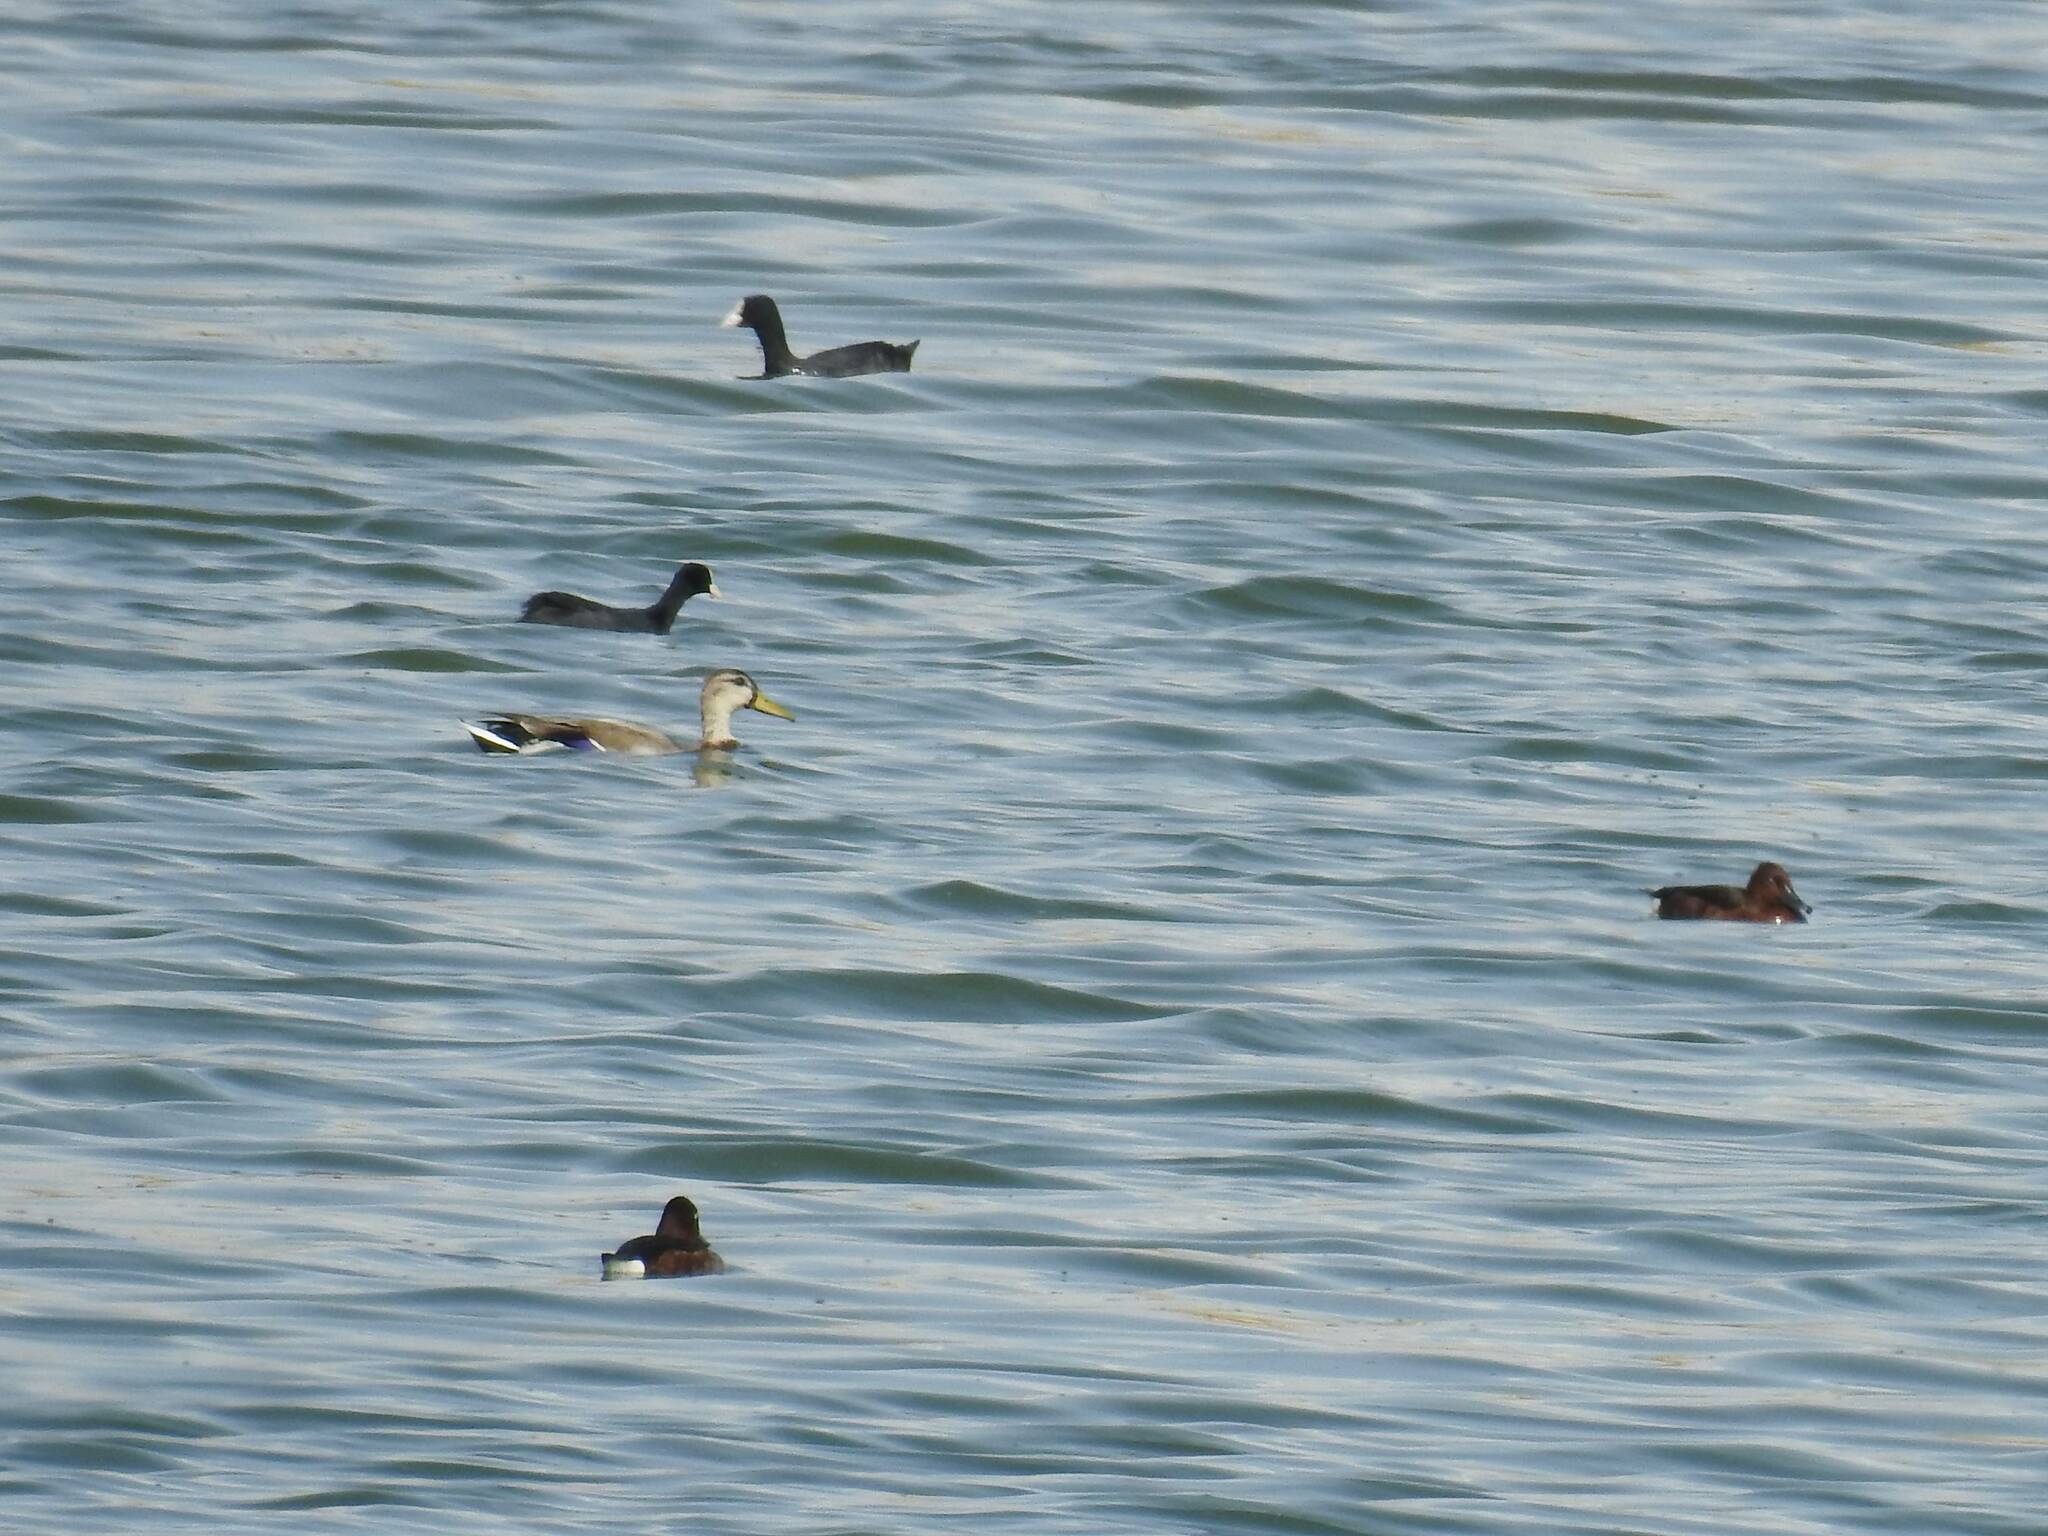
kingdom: Animalia
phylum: Chordata
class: Aves
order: Anseriformes
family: Anatidae
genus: Anas
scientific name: Anas platyrhynchos
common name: Mallard
